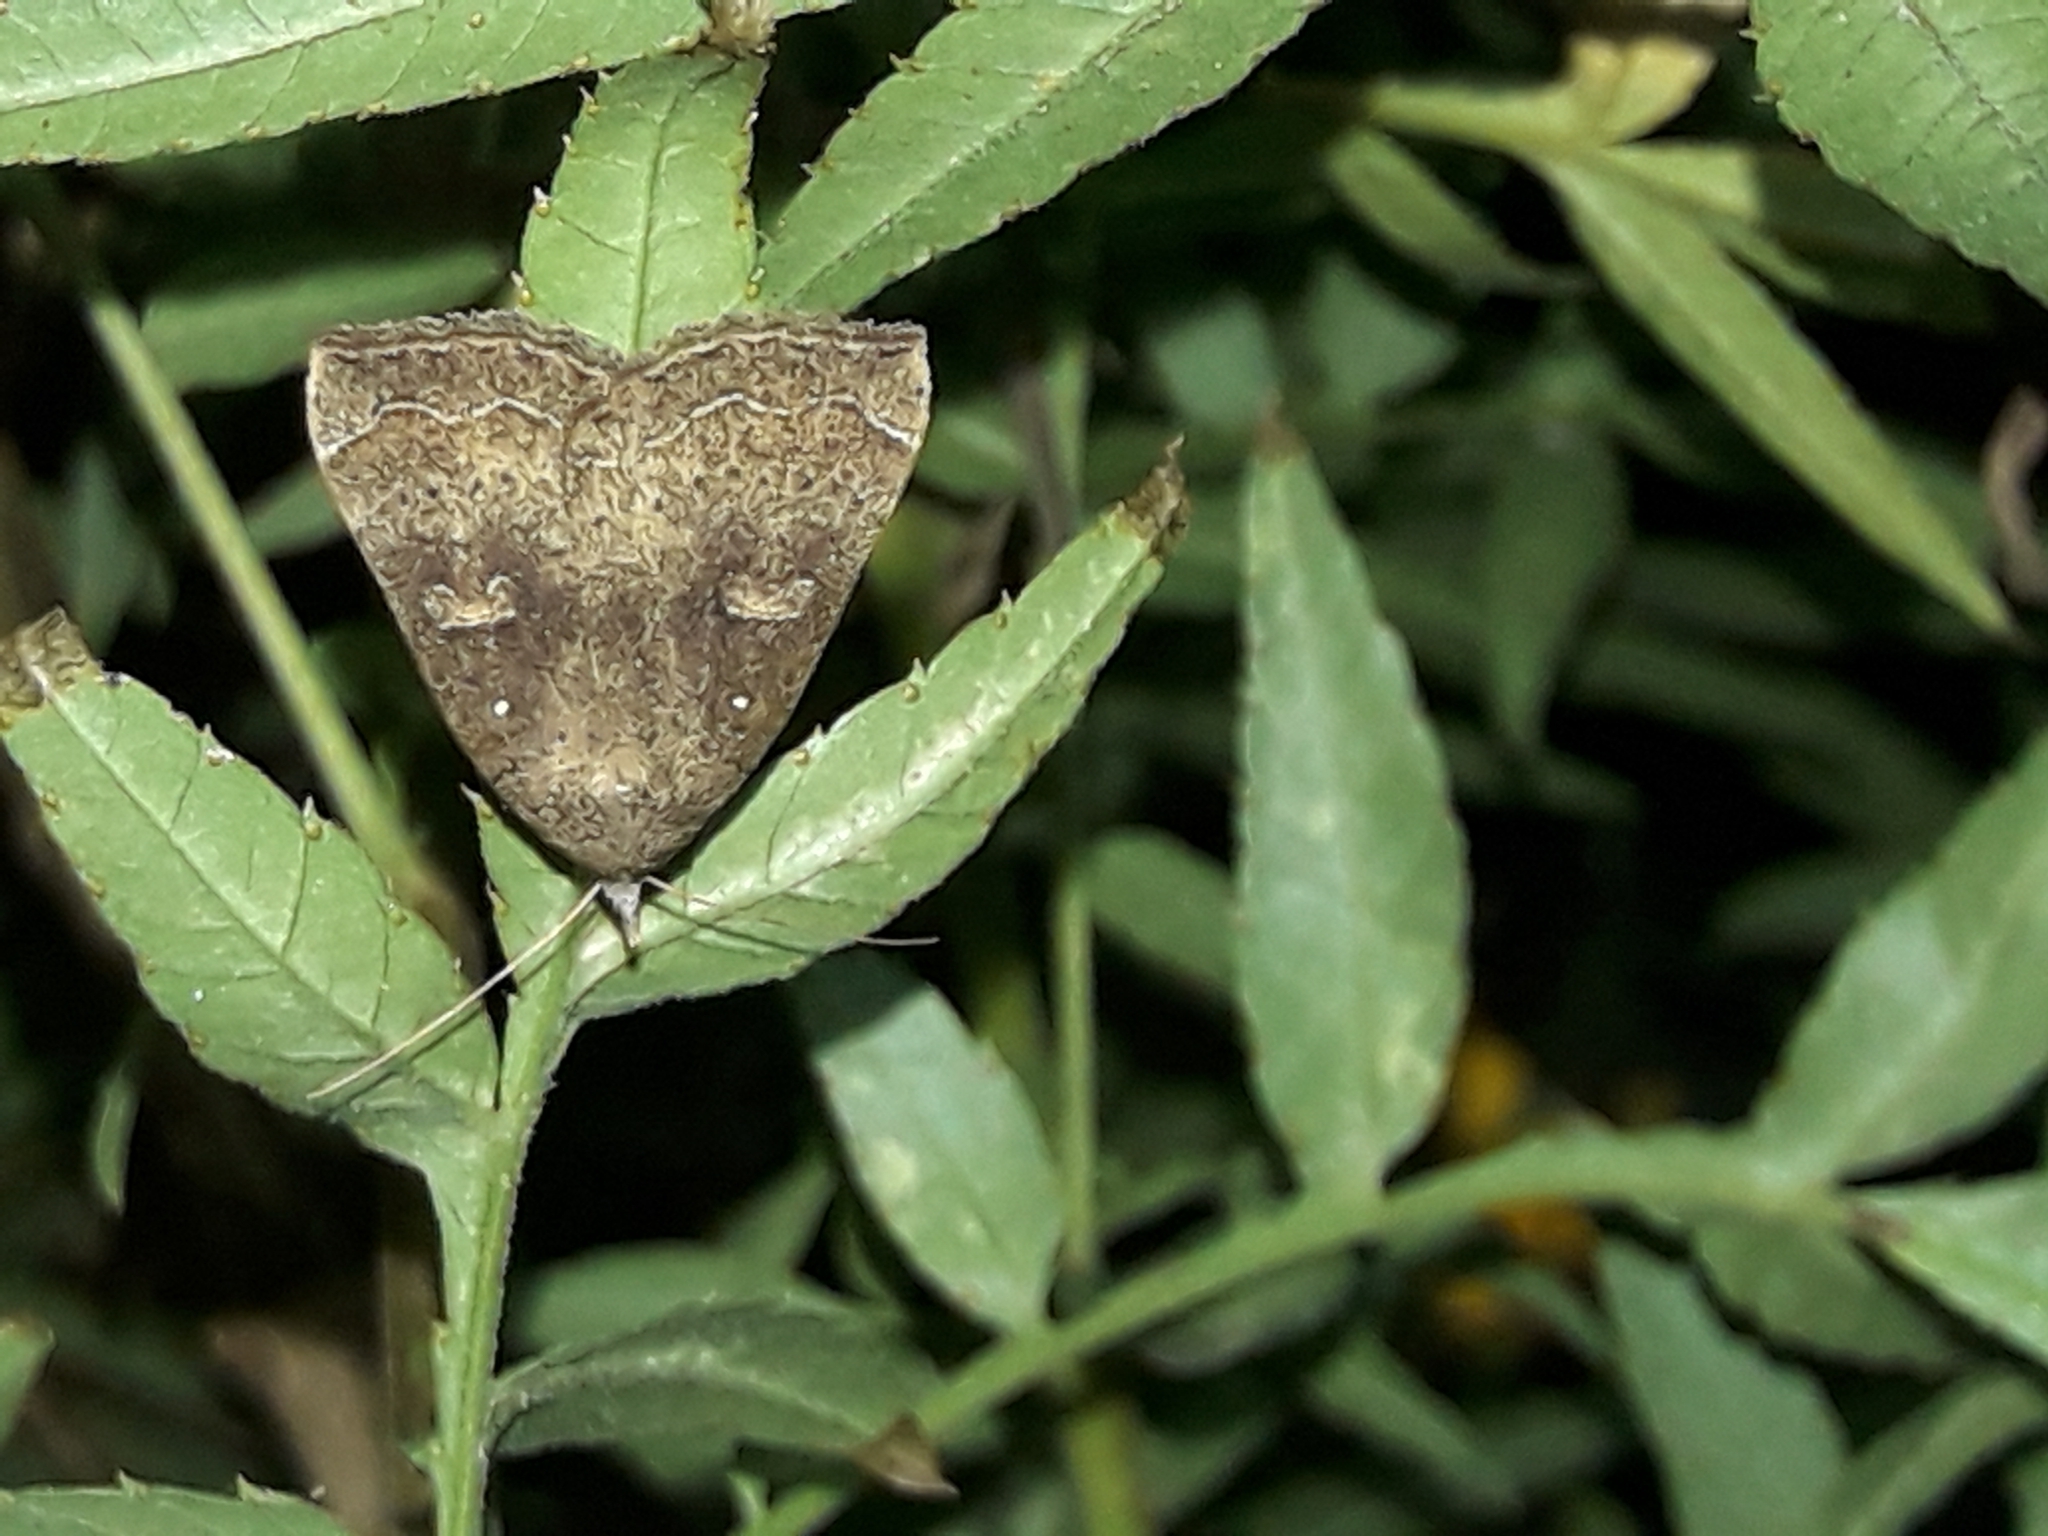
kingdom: Animalia
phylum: Arthropoda
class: Insecta
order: Lepidoptera
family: Erebidae
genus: Rhapsa
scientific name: Rhapsa scotosialis
